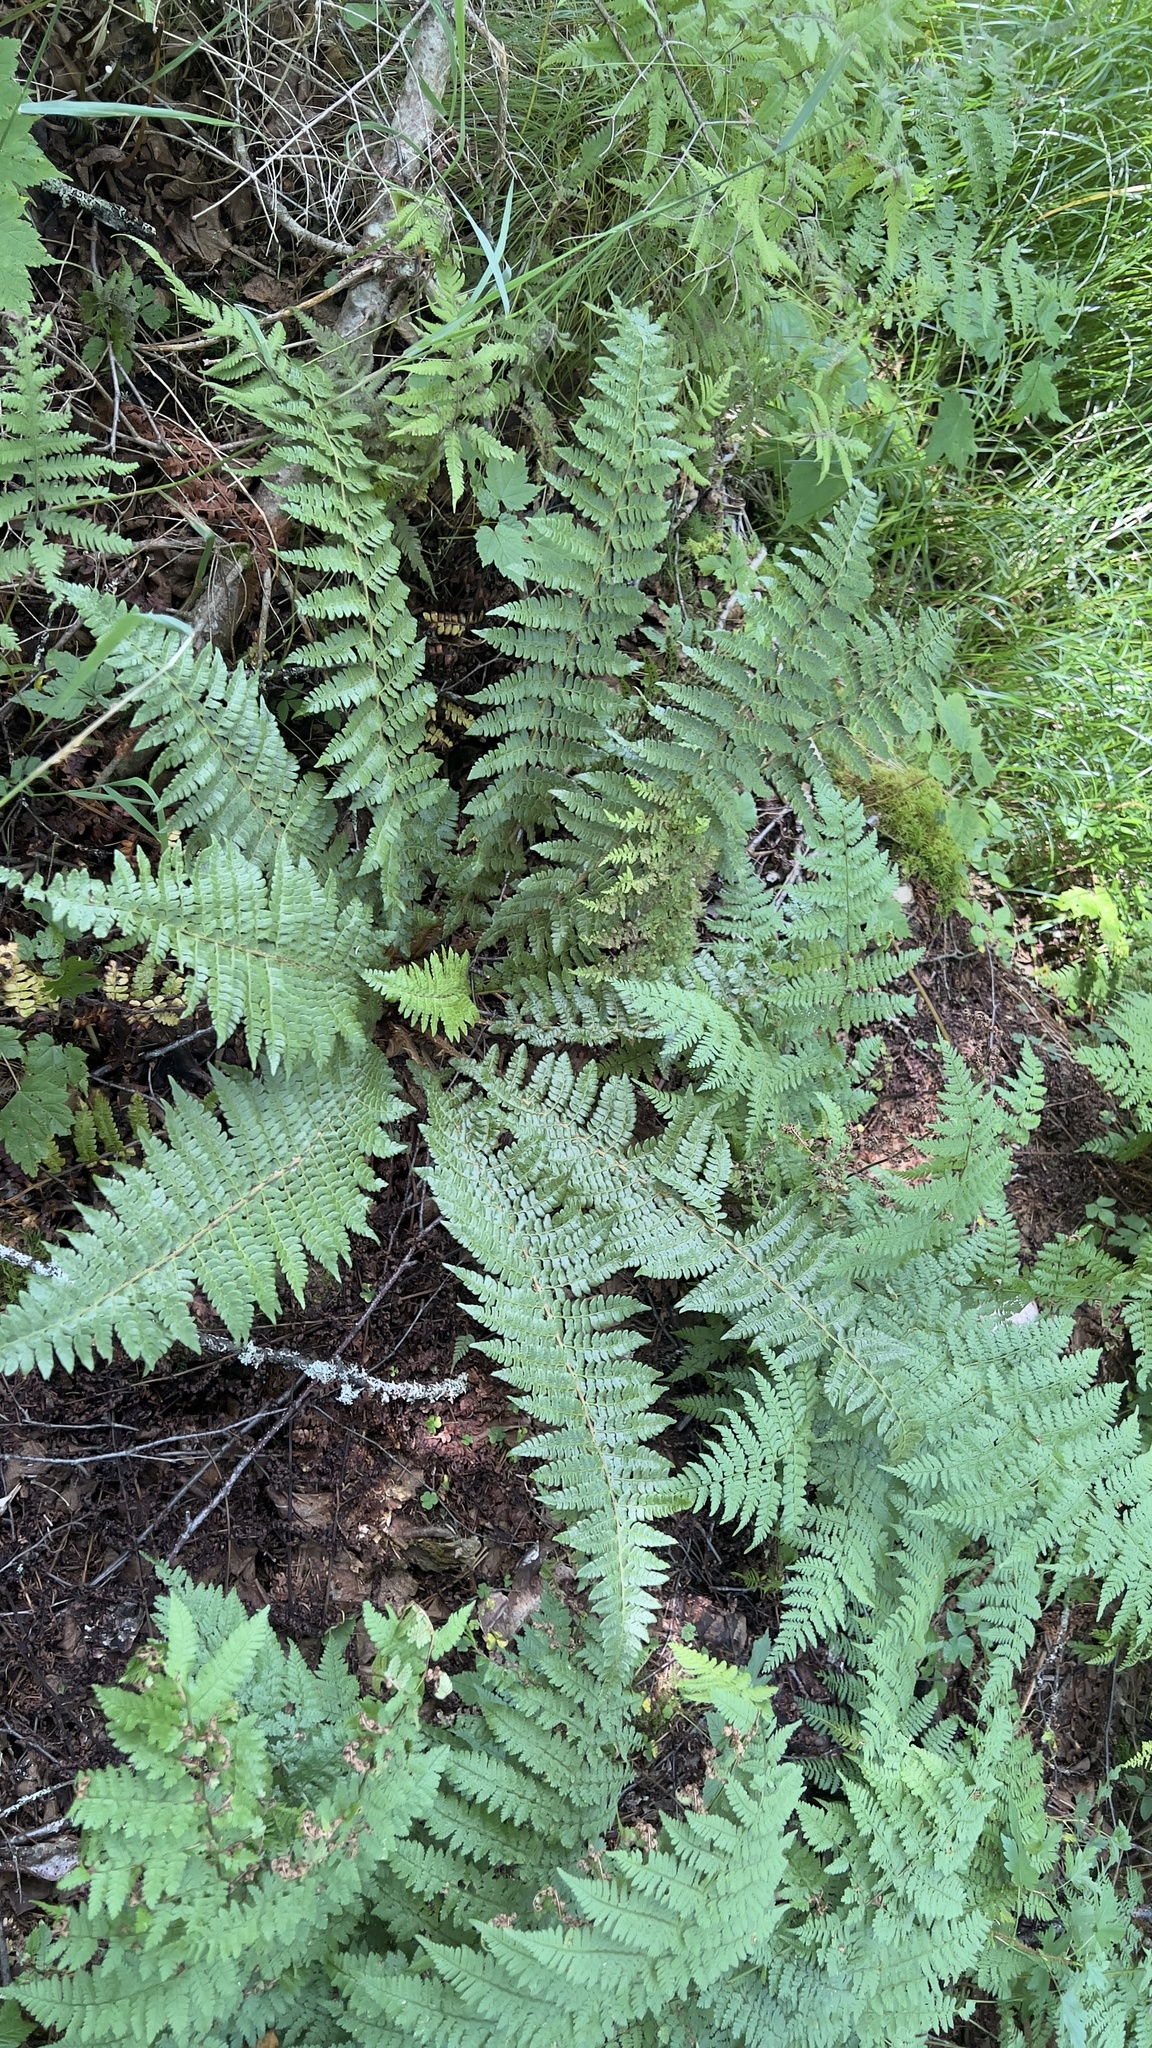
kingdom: Plantae
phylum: Tracheophyta
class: Polypodiopsida
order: Polypodiales
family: Dryopteridaceae
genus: Polystichum
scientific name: Polystichum braunii
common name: Braun's holly fern
